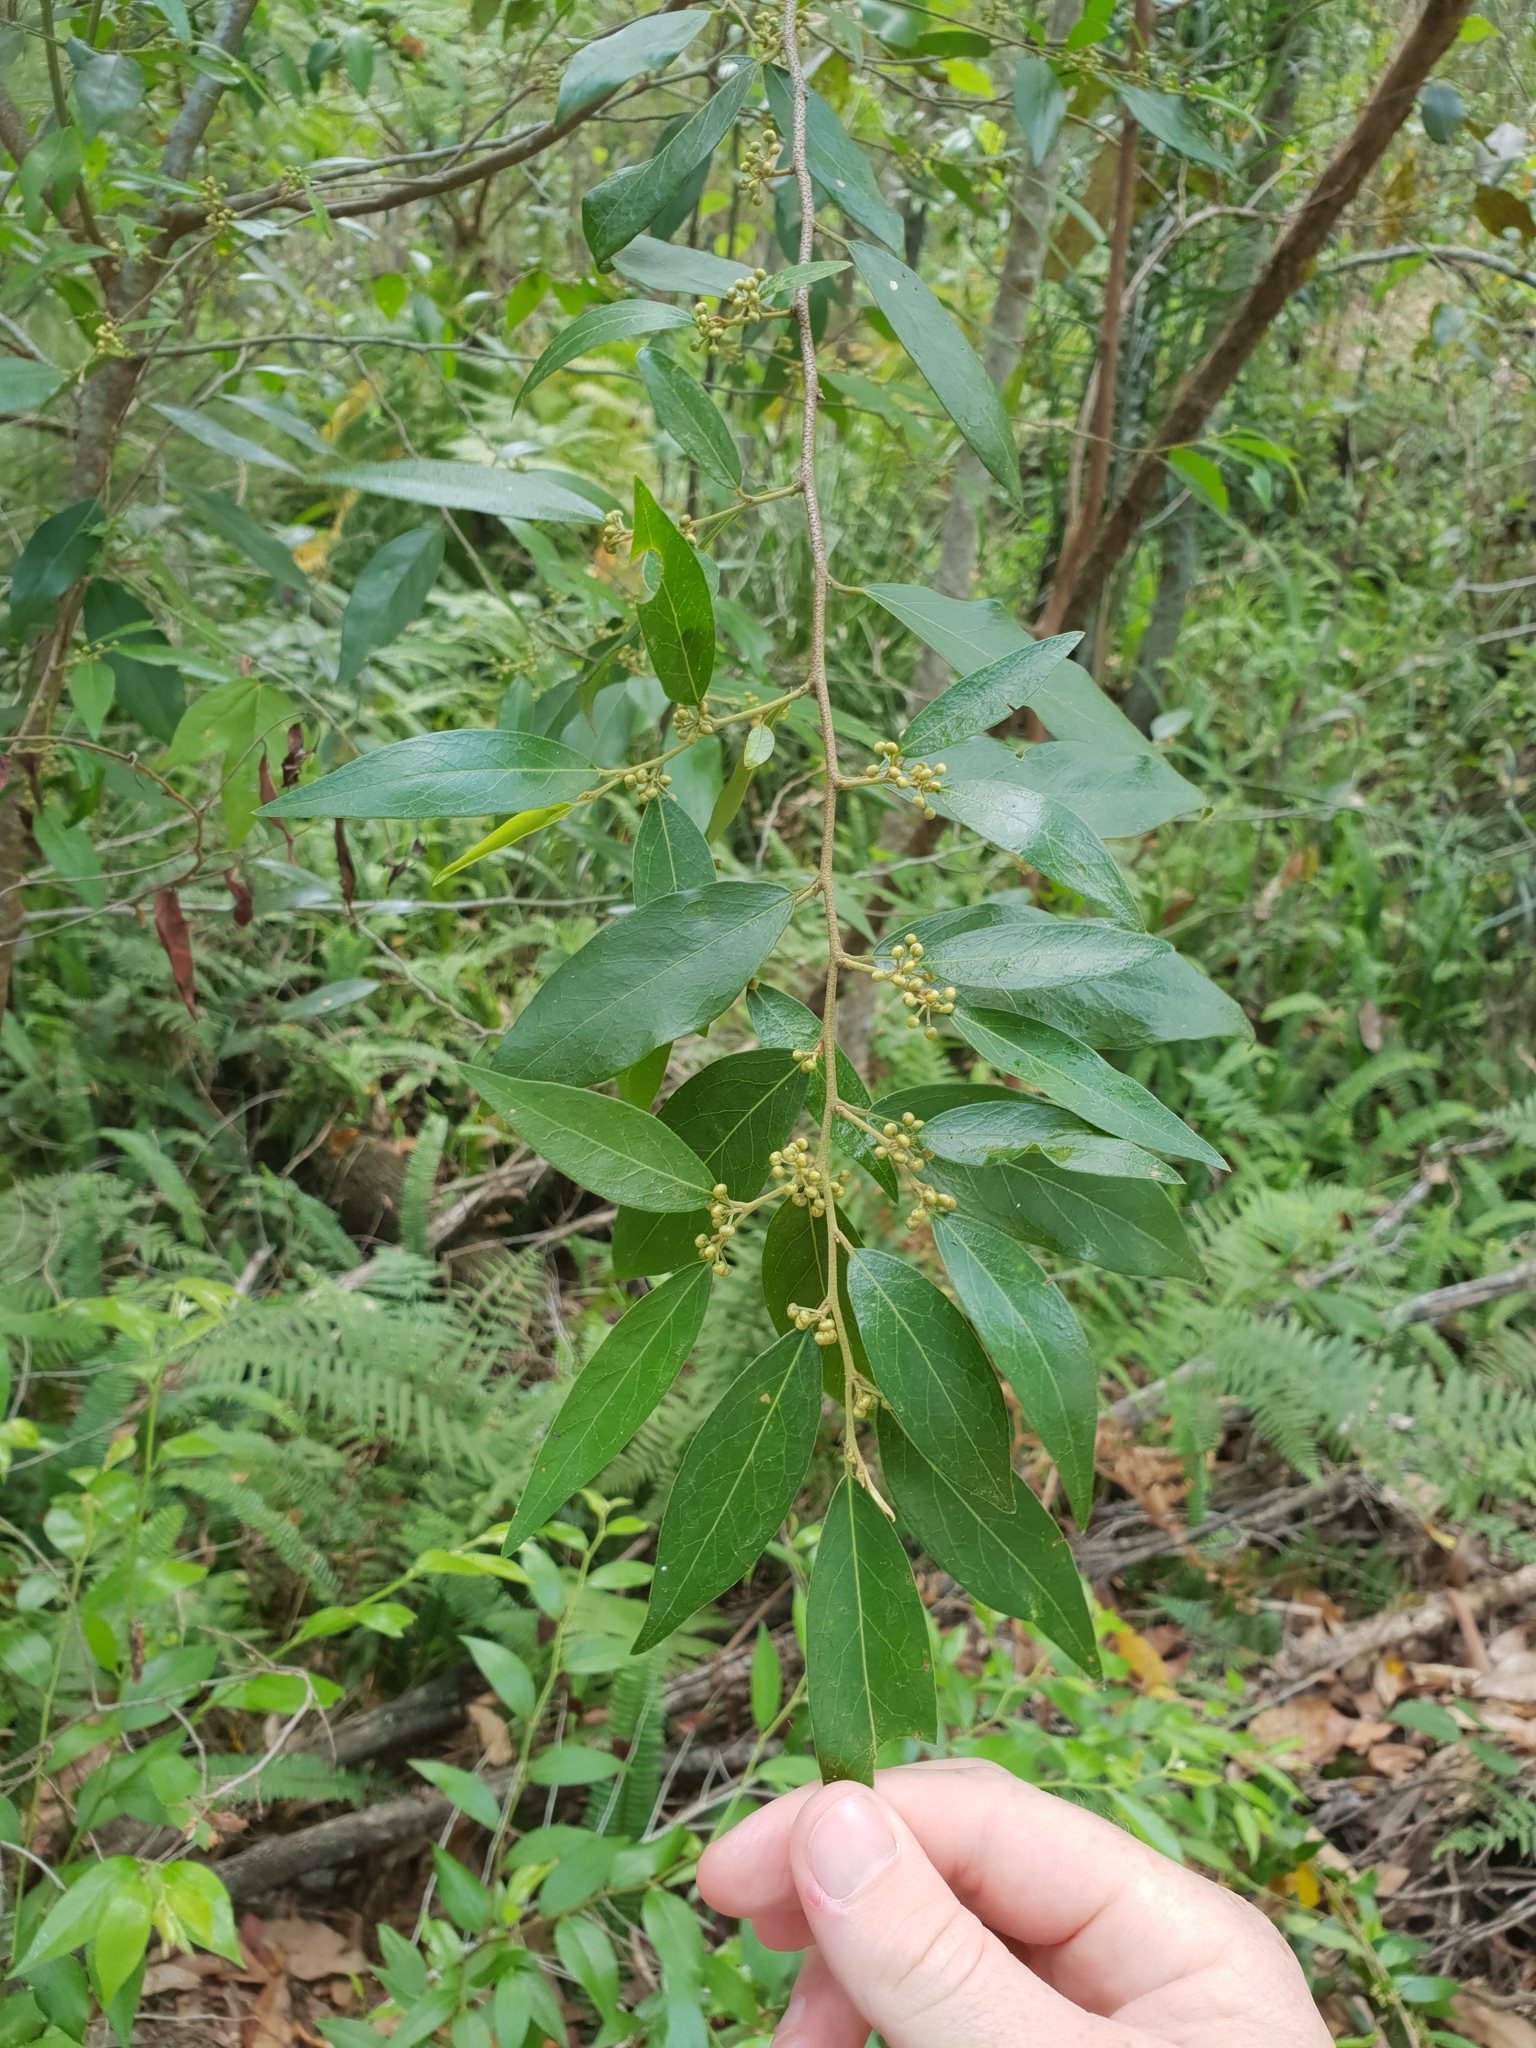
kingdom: Plantae
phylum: Tracheophyta
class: Magnoliopsida
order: Malpighiales
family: Picrodendraceae
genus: Petalostigma
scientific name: Petalostigma triloculare
